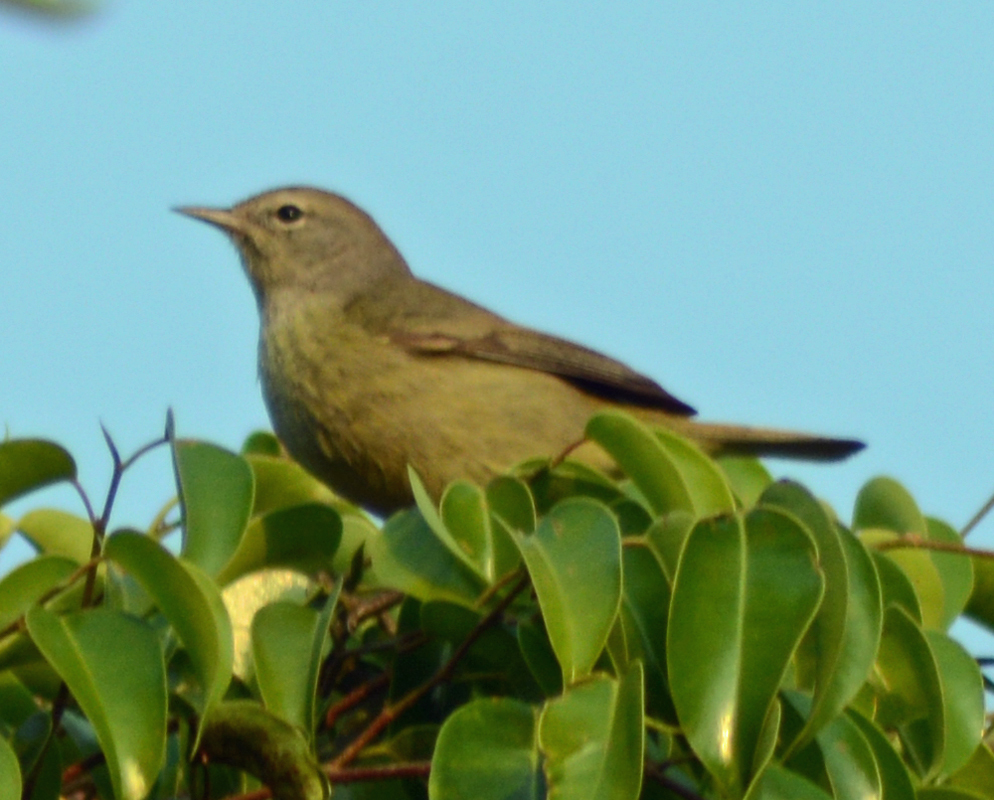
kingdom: Animalia
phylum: Chordata
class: Aves
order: Passeriformes
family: Parulidae
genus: Leiothlypis
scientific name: Leiothlypis celata
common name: Orange-crowned warbler
